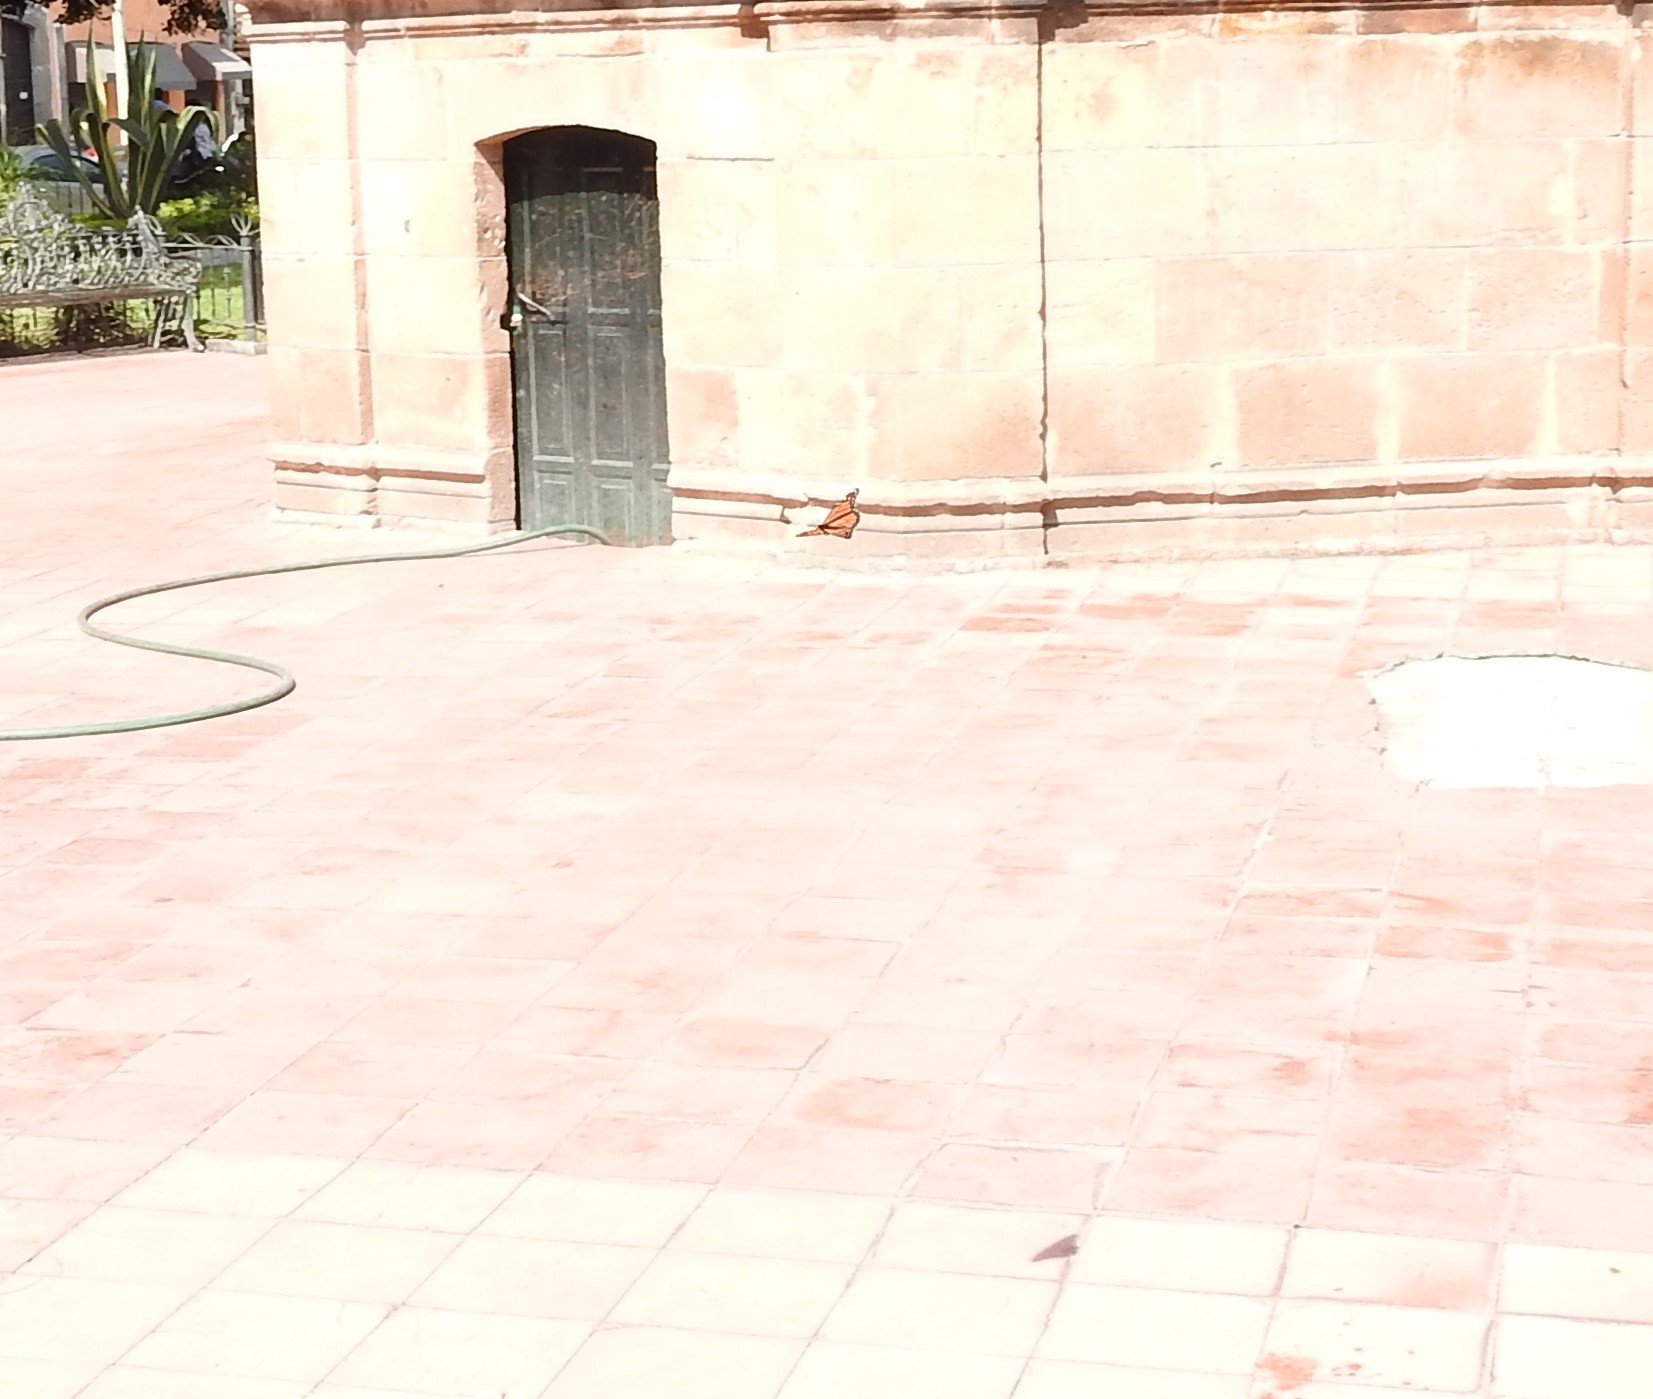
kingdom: Animalia
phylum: Arthropoda
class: Insecta
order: Lepidoptera
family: Nymphalidae
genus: Danaus
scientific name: Danaus plexippus
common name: Monarch
